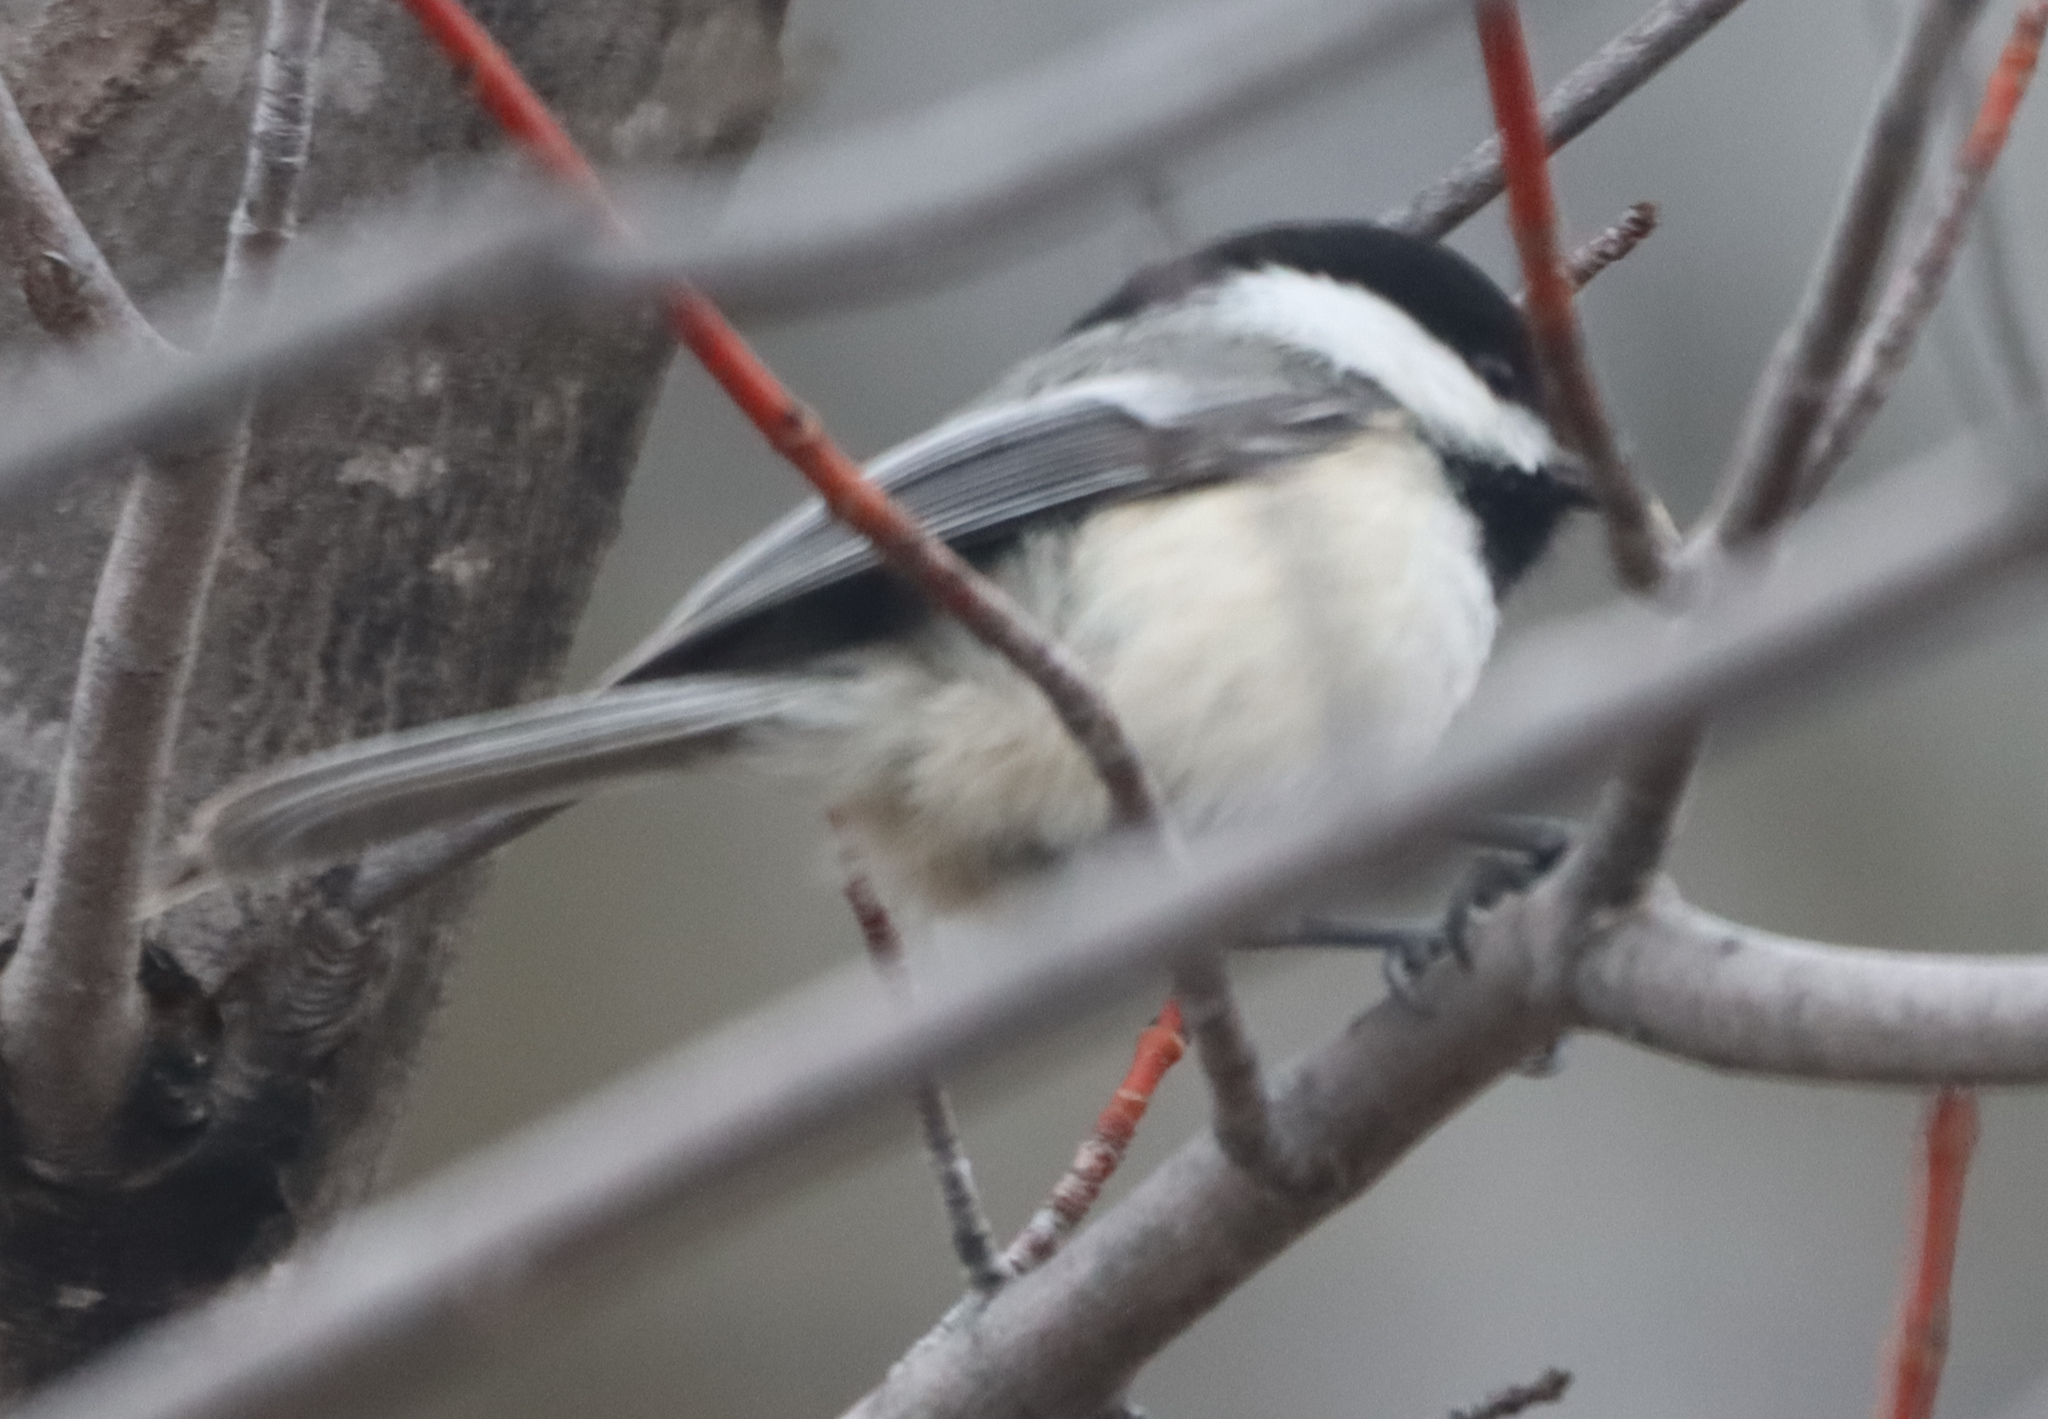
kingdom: Animalia
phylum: Chordata
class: Aves
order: Passeriformes
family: Paridae
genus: Poecile
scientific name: Poecile atricapillus
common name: Black-capped chickadee
